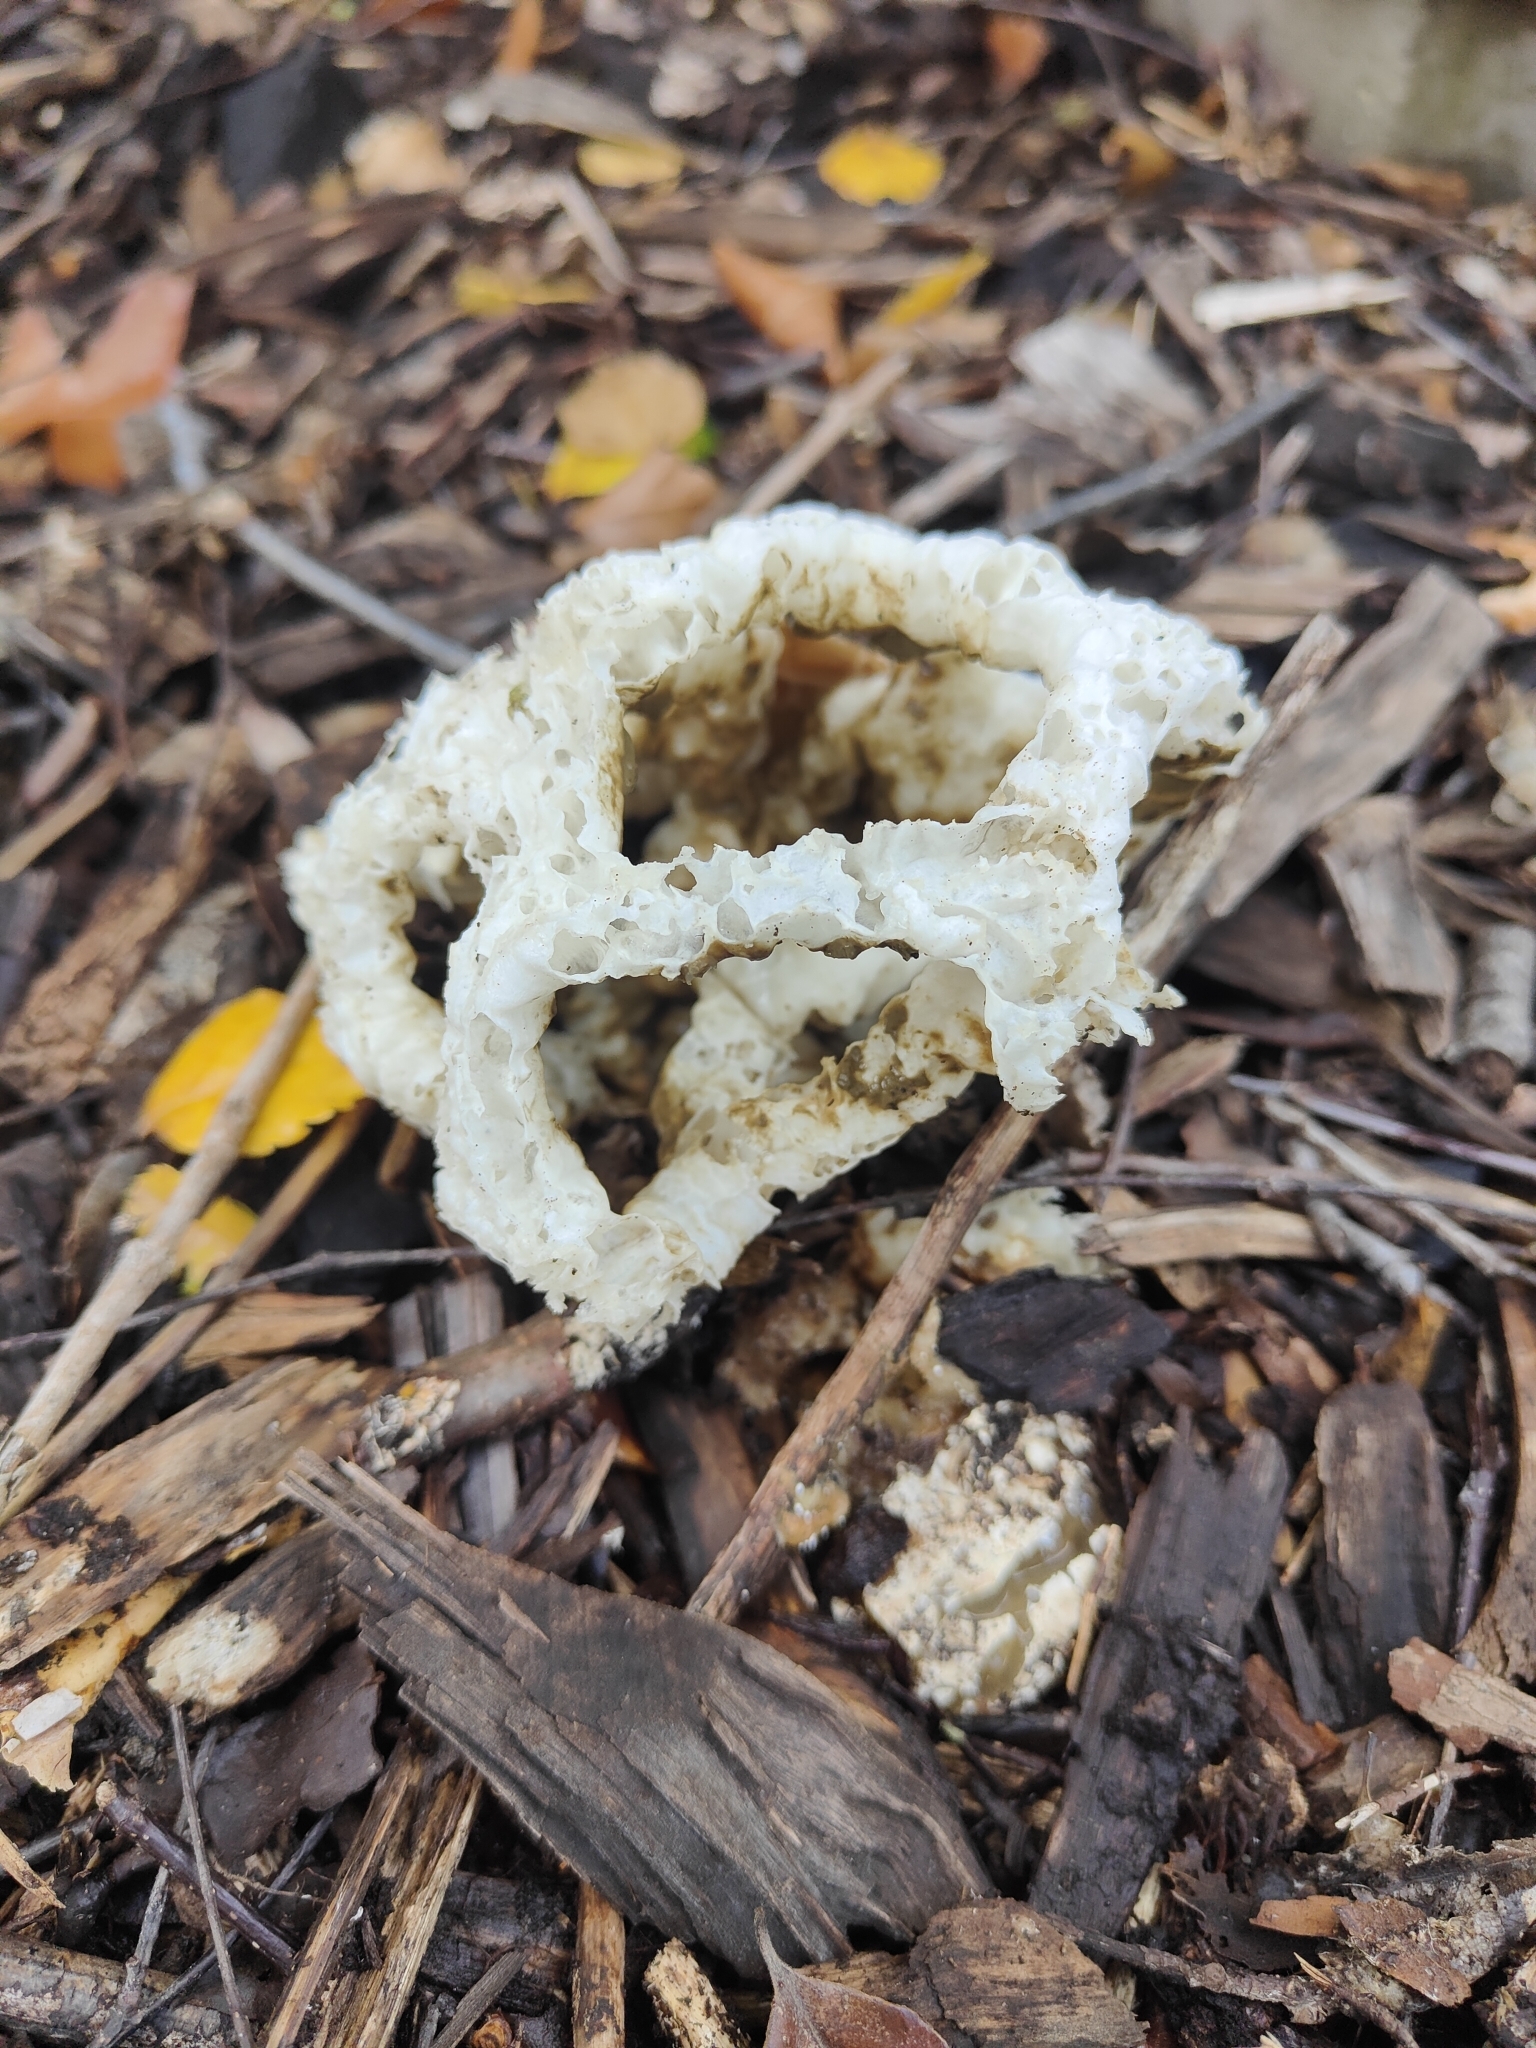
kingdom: Fungi
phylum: Basidiomycota
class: Agaricomycetes
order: Phallales
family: Phallaceae
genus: Ileodictyon
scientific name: Ileodictyon cibarium
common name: Basket fungus
